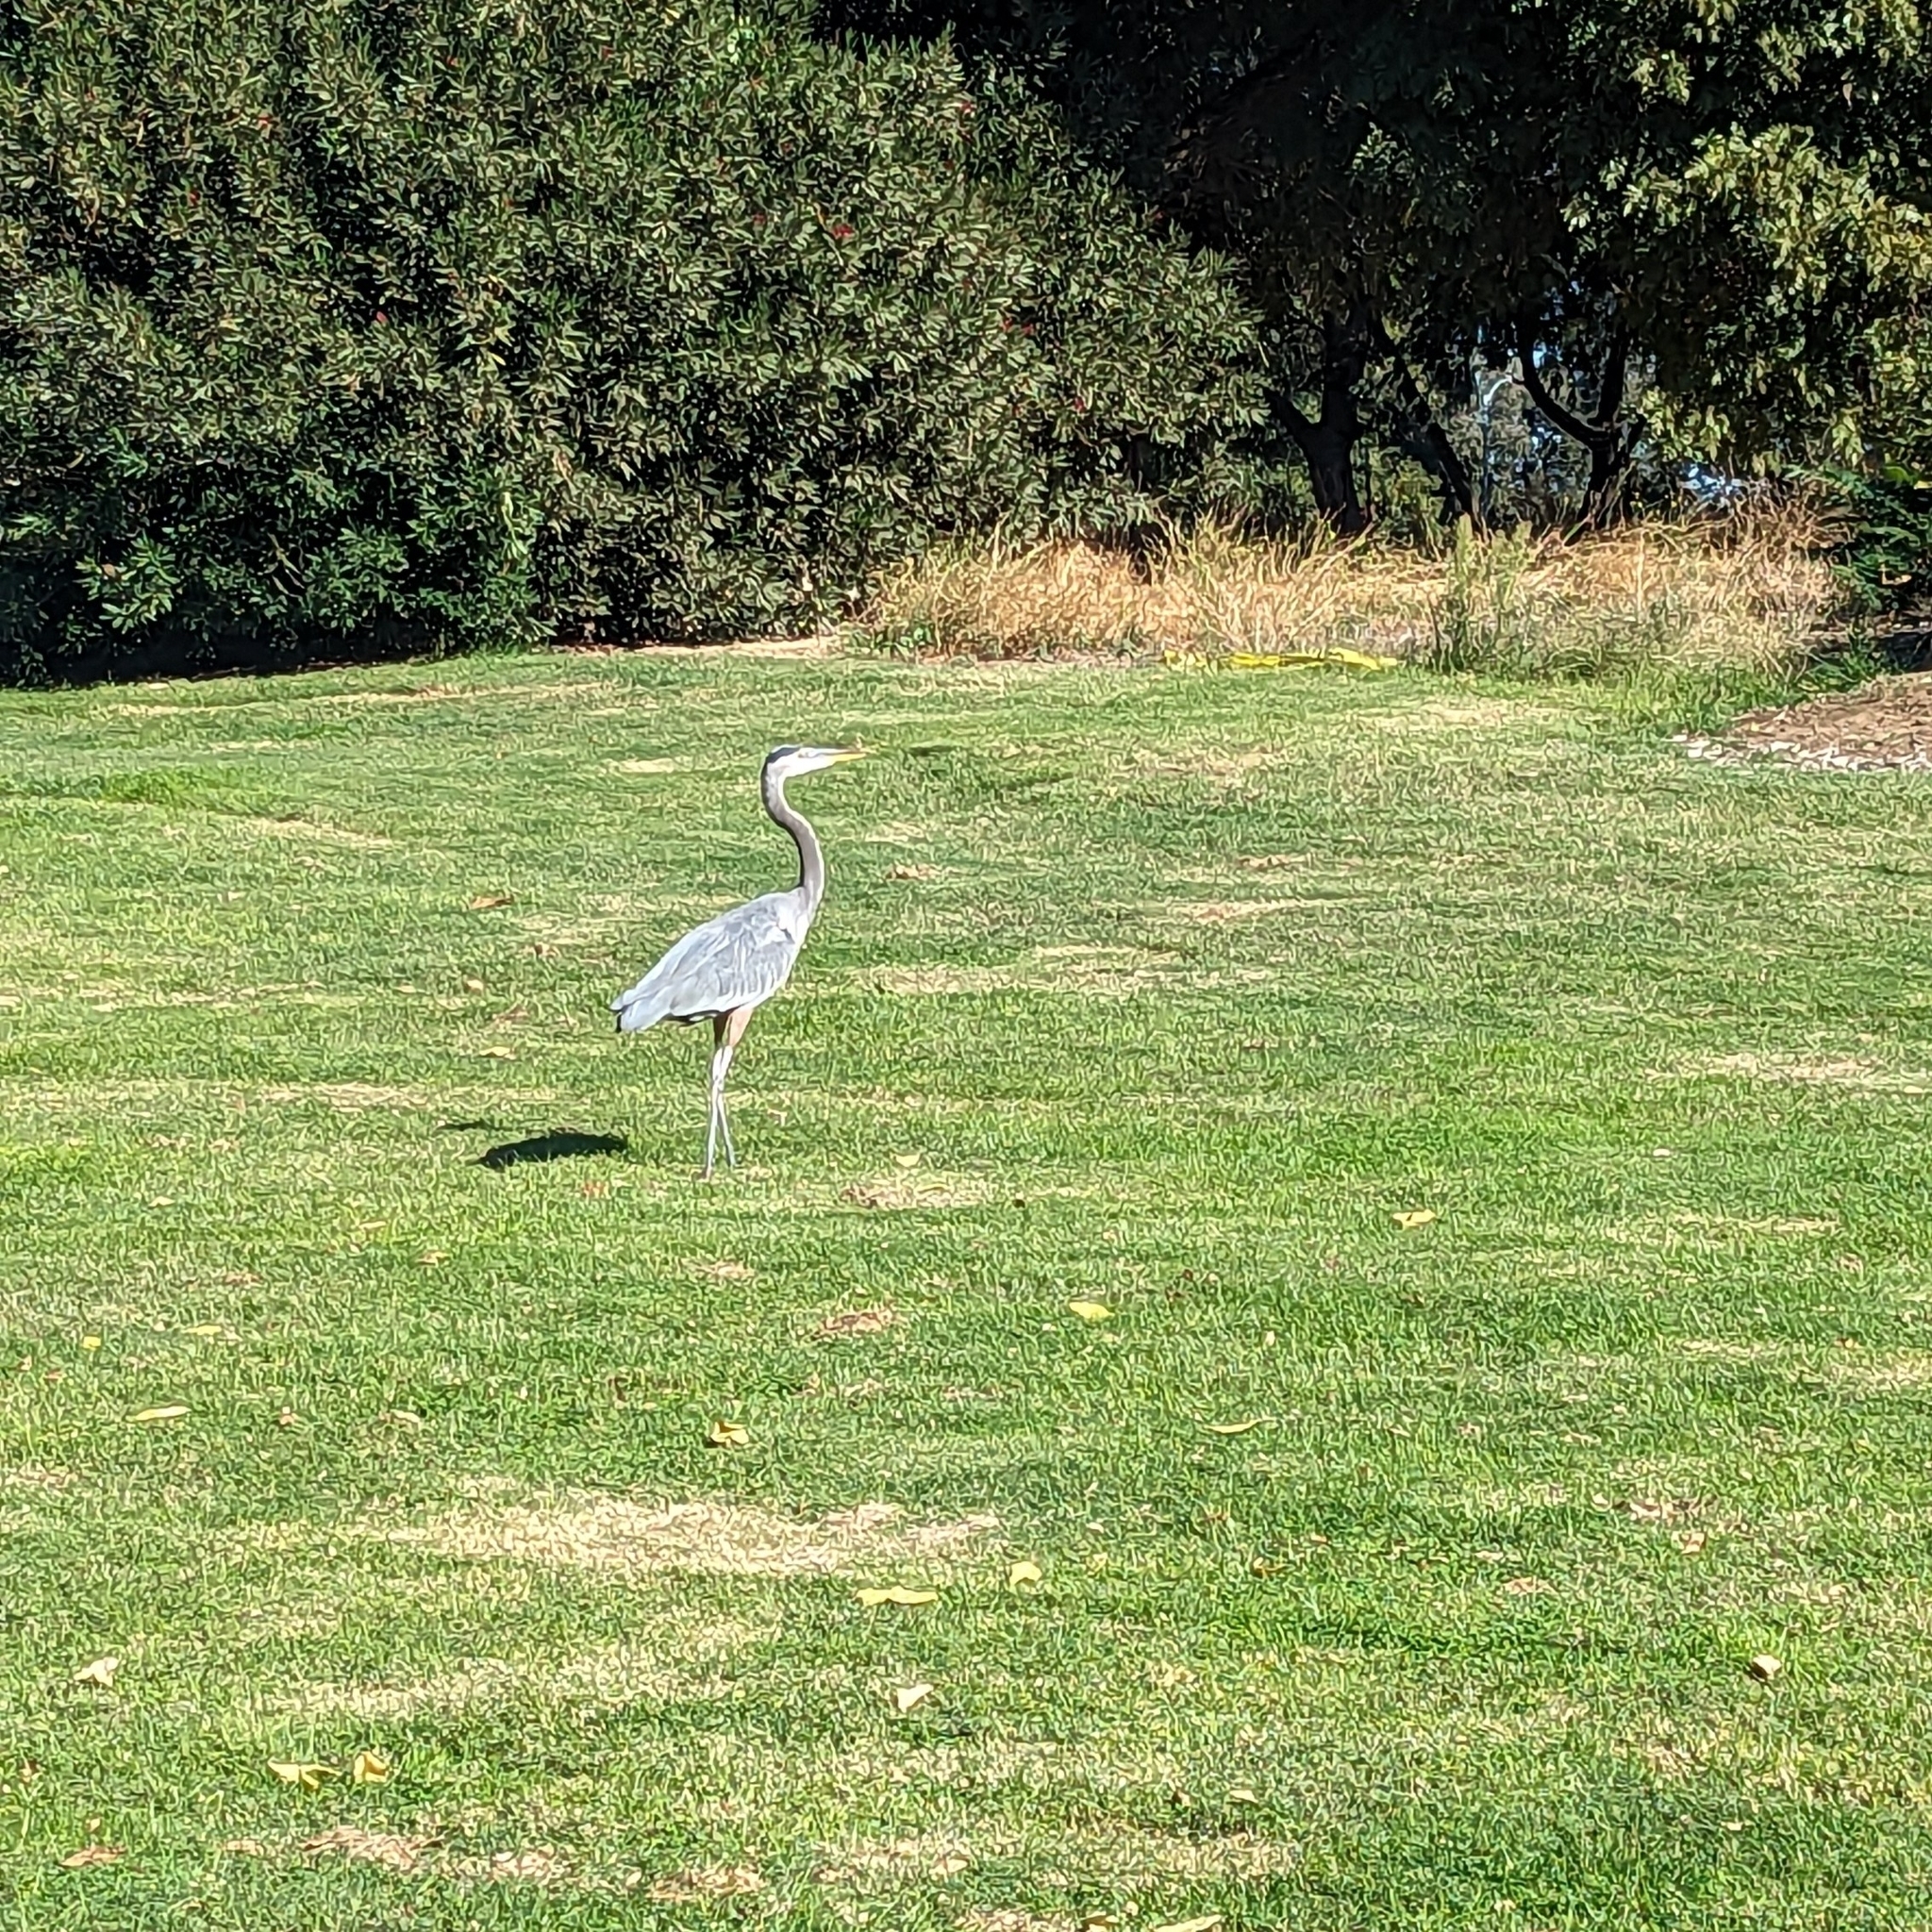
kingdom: Animalia
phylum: Chordata
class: Aves
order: Pelecaniformes
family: Ardeidae
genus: Ardea
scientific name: Ardea herodias
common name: Great blue heron
